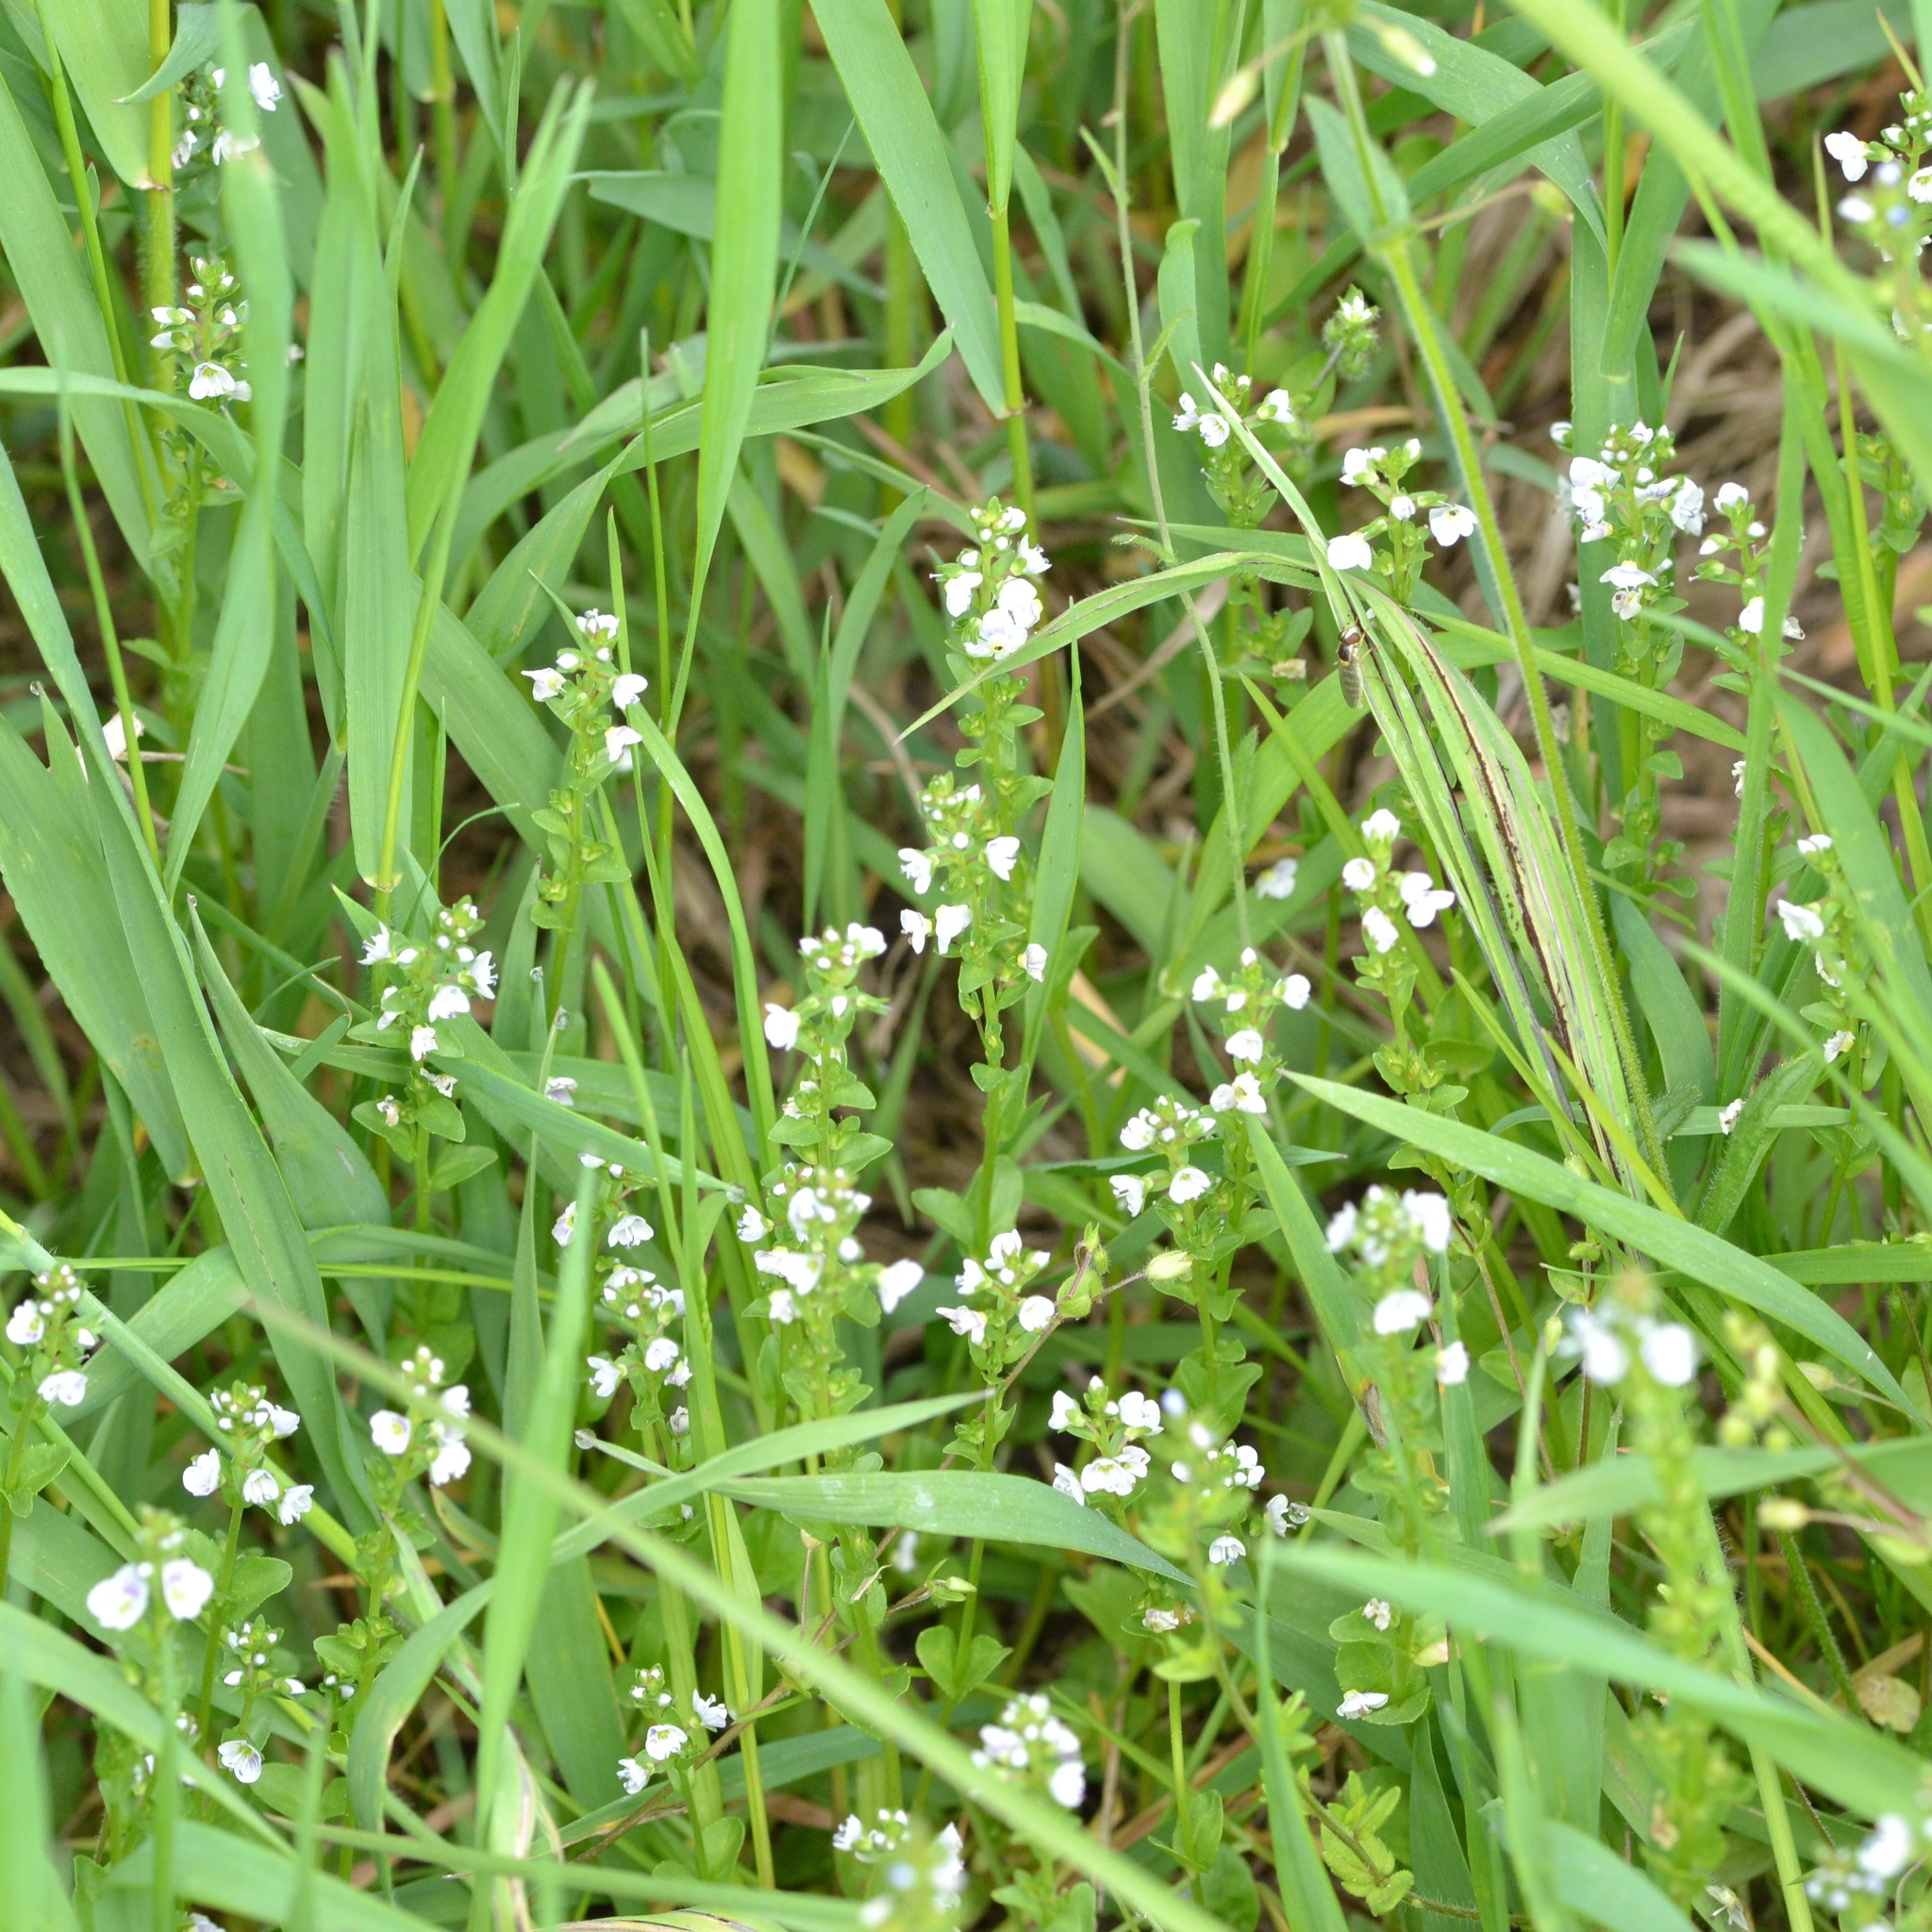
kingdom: Plantae
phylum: Tracheophyta
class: Magnoliopsida
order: Lamiales
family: Plantaginaceae
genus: Veronica
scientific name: Veronica serpyllifolia
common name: Thyme-leaved speedwell
